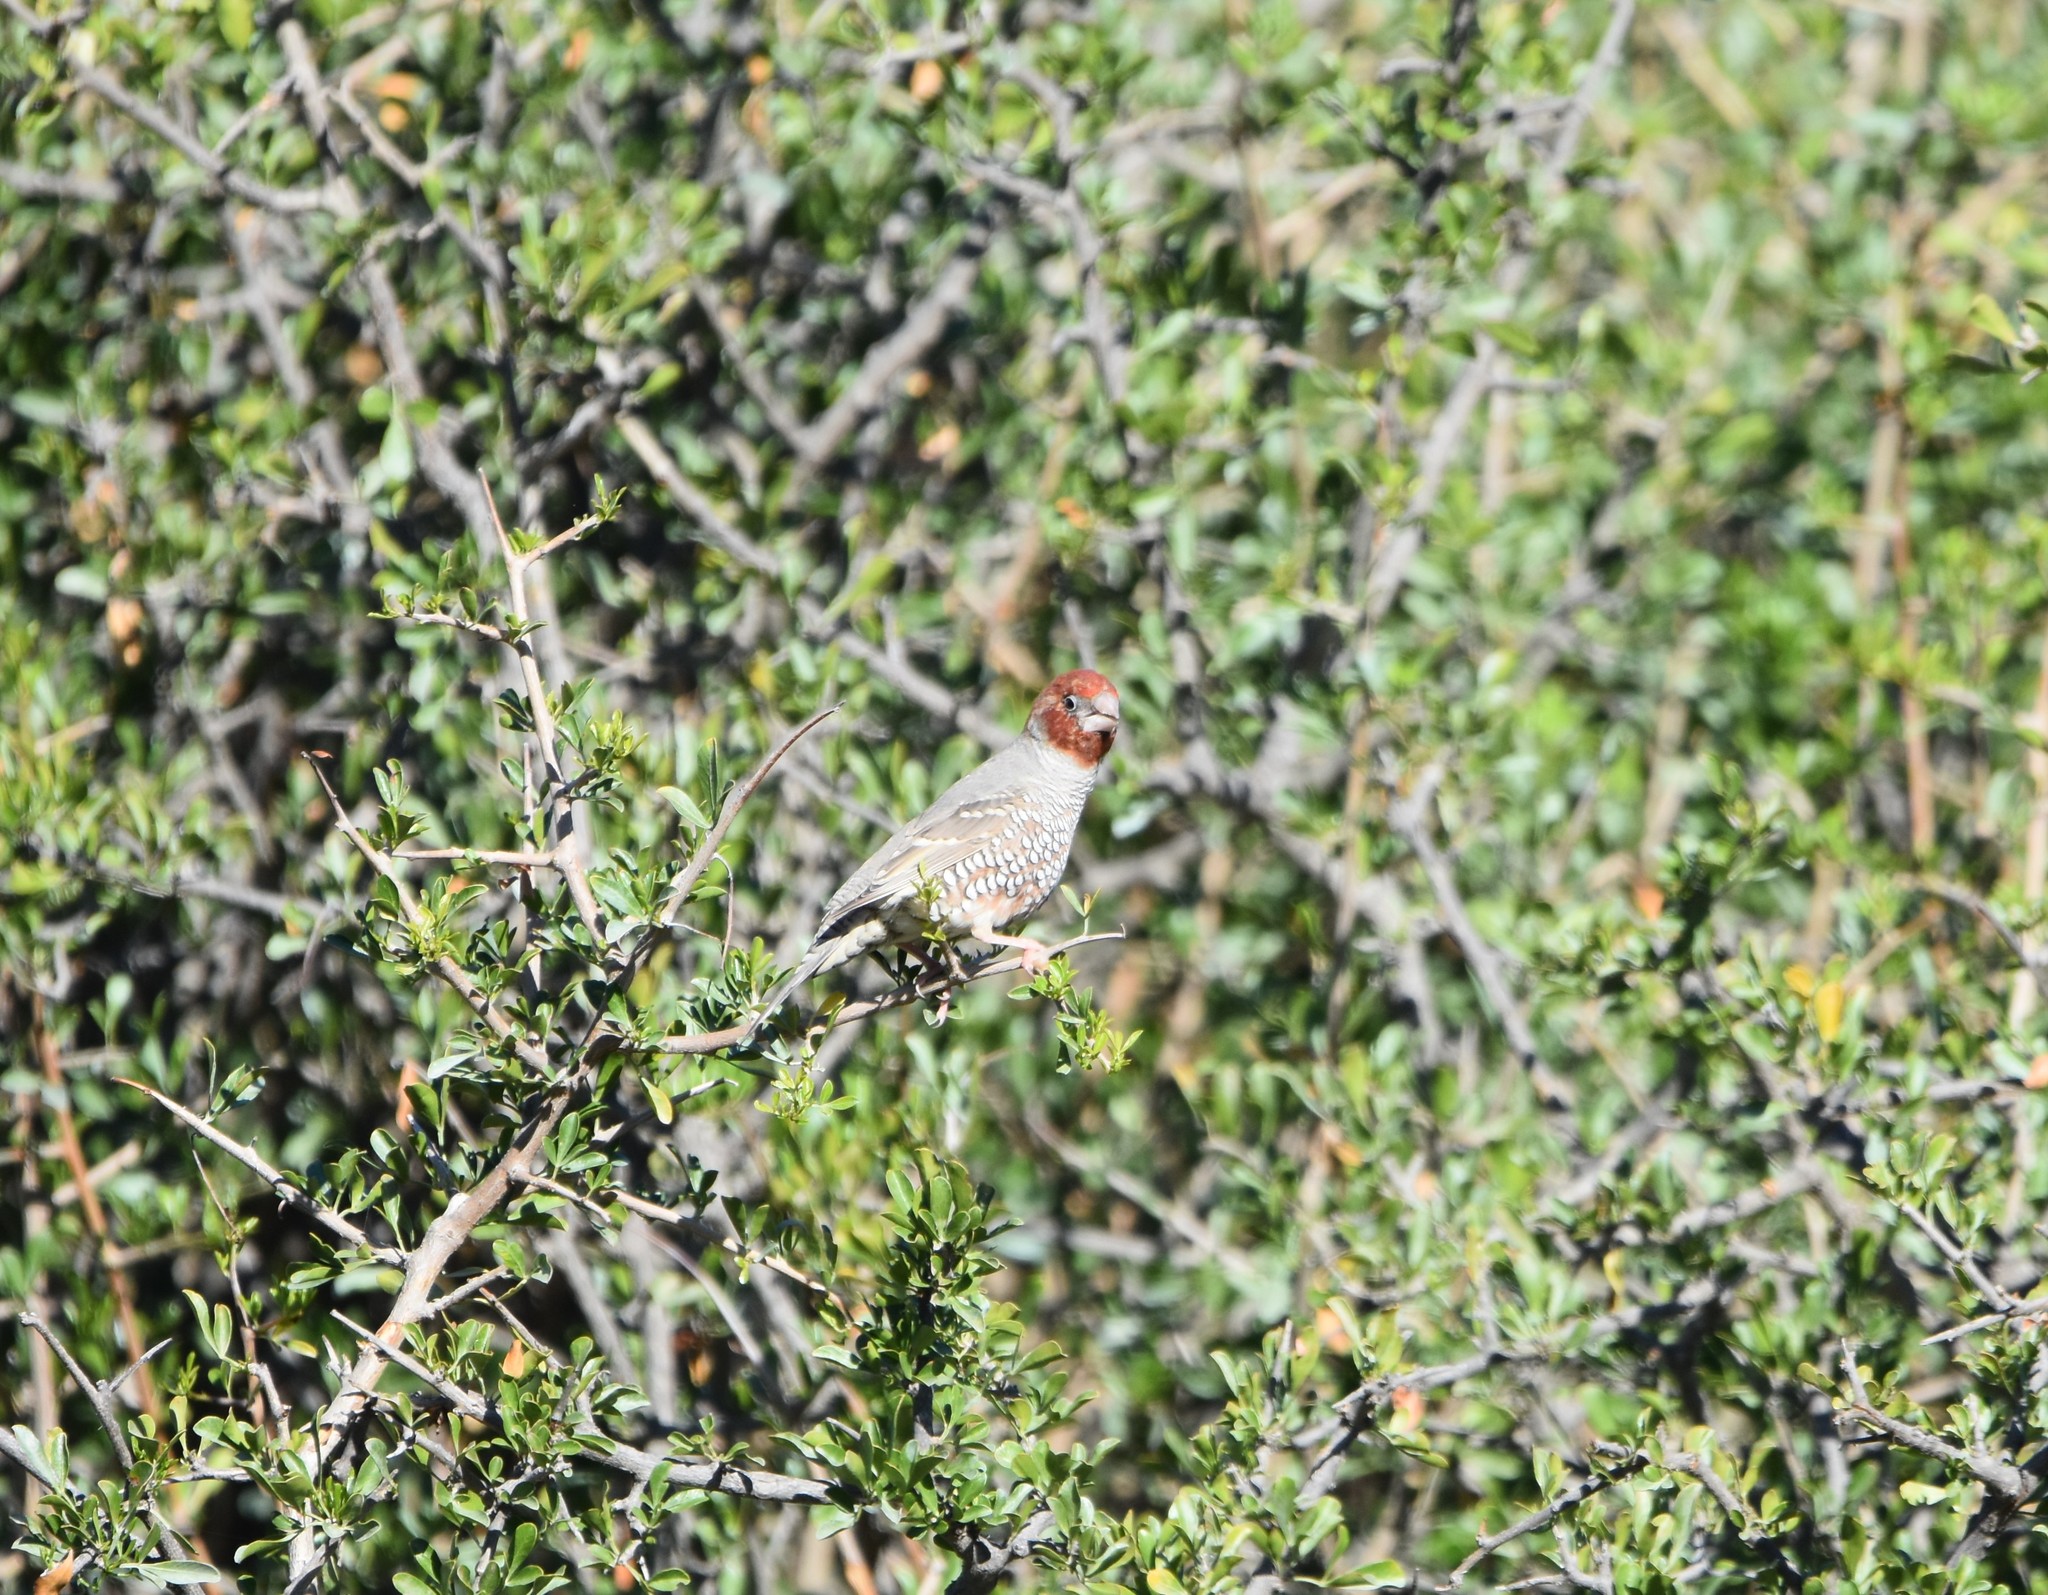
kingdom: Animalia
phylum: Chordata
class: Aves
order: Passeriformes
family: Estrildidae
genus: Amadina
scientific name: Amadina erythrocephala
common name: Red-headed finch
